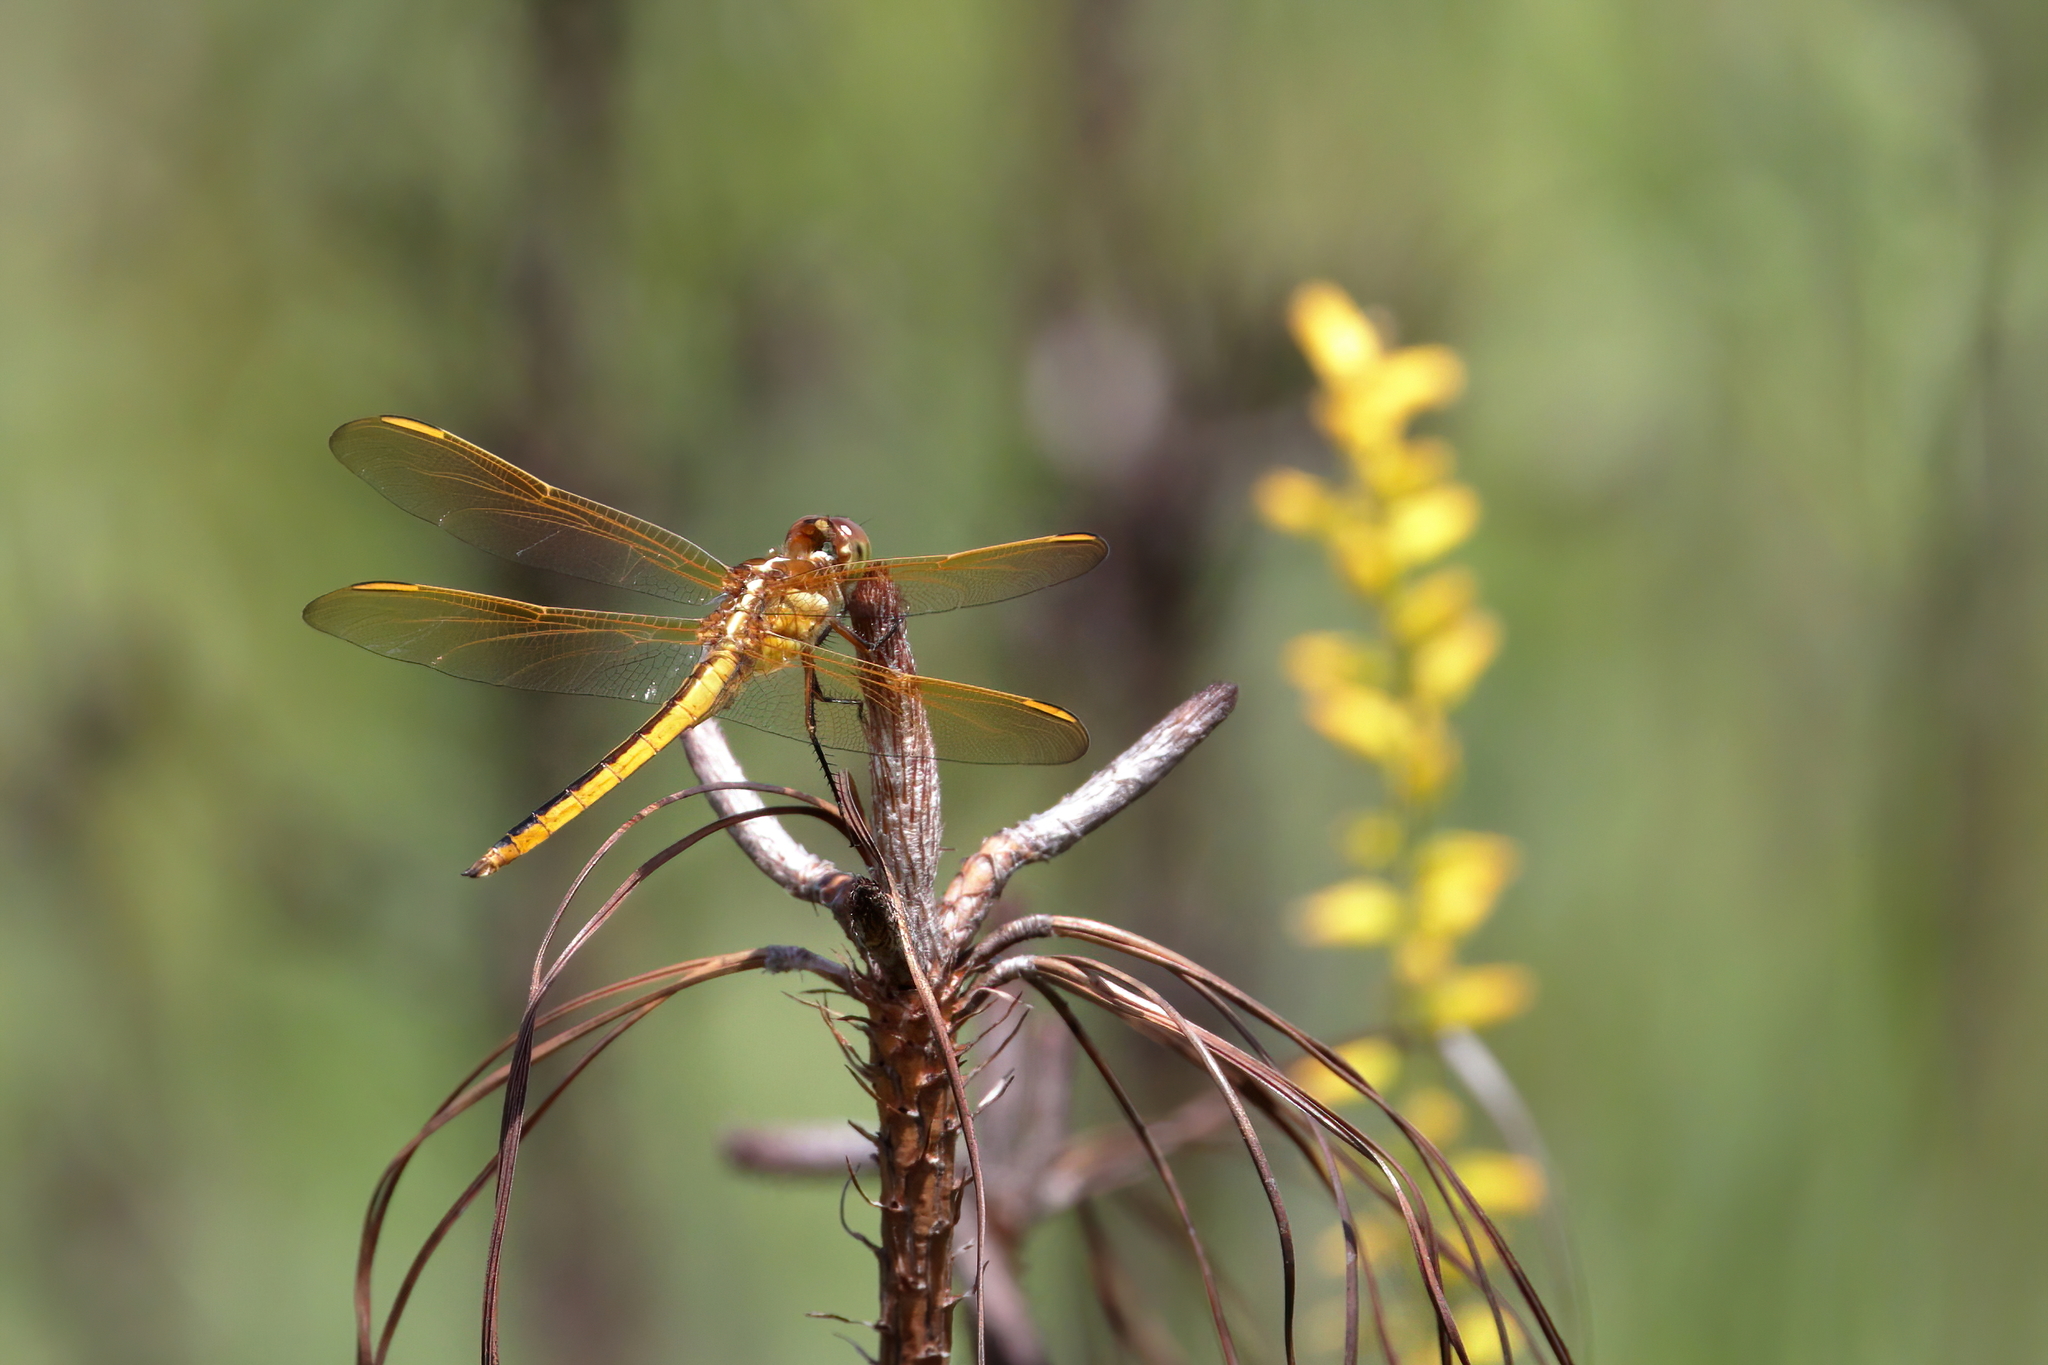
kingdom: Animalia
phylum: Arthropoda
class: Insecta
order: Odonata
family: Libellulidae
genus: Libellula
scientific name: Libellula auripennis
